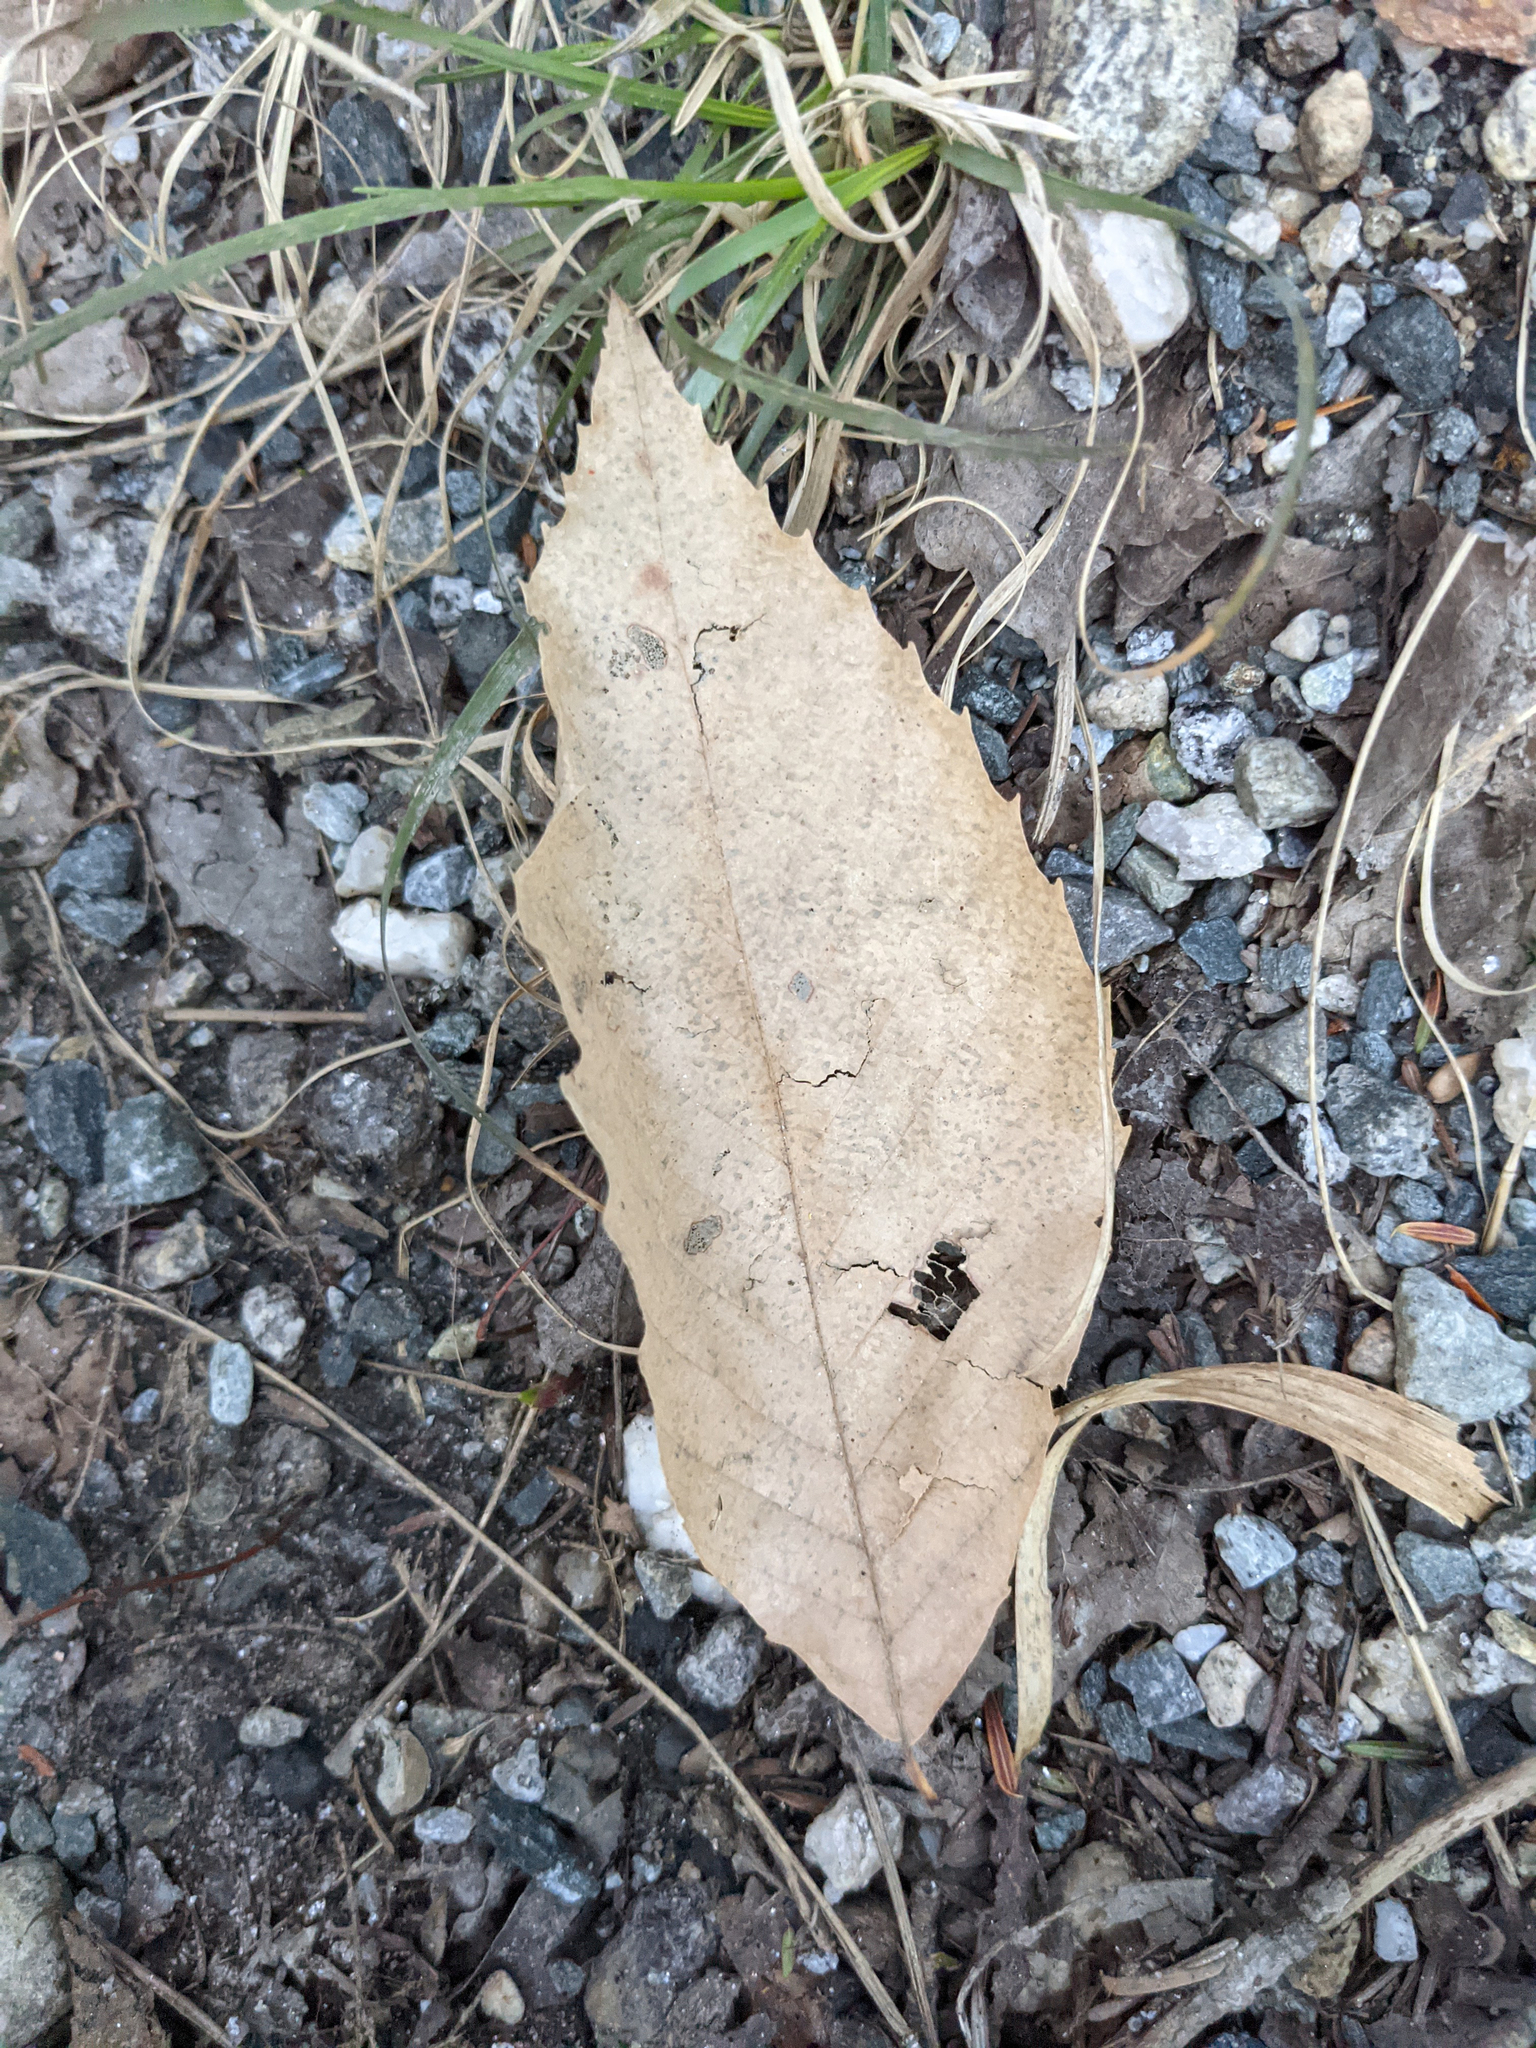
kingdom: Plantae
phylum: Tracheophyta
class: Magnoliopsida
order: Fagales
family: Fagaceae
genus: Fagus
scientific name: Fagus grandifolia
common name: American beech
